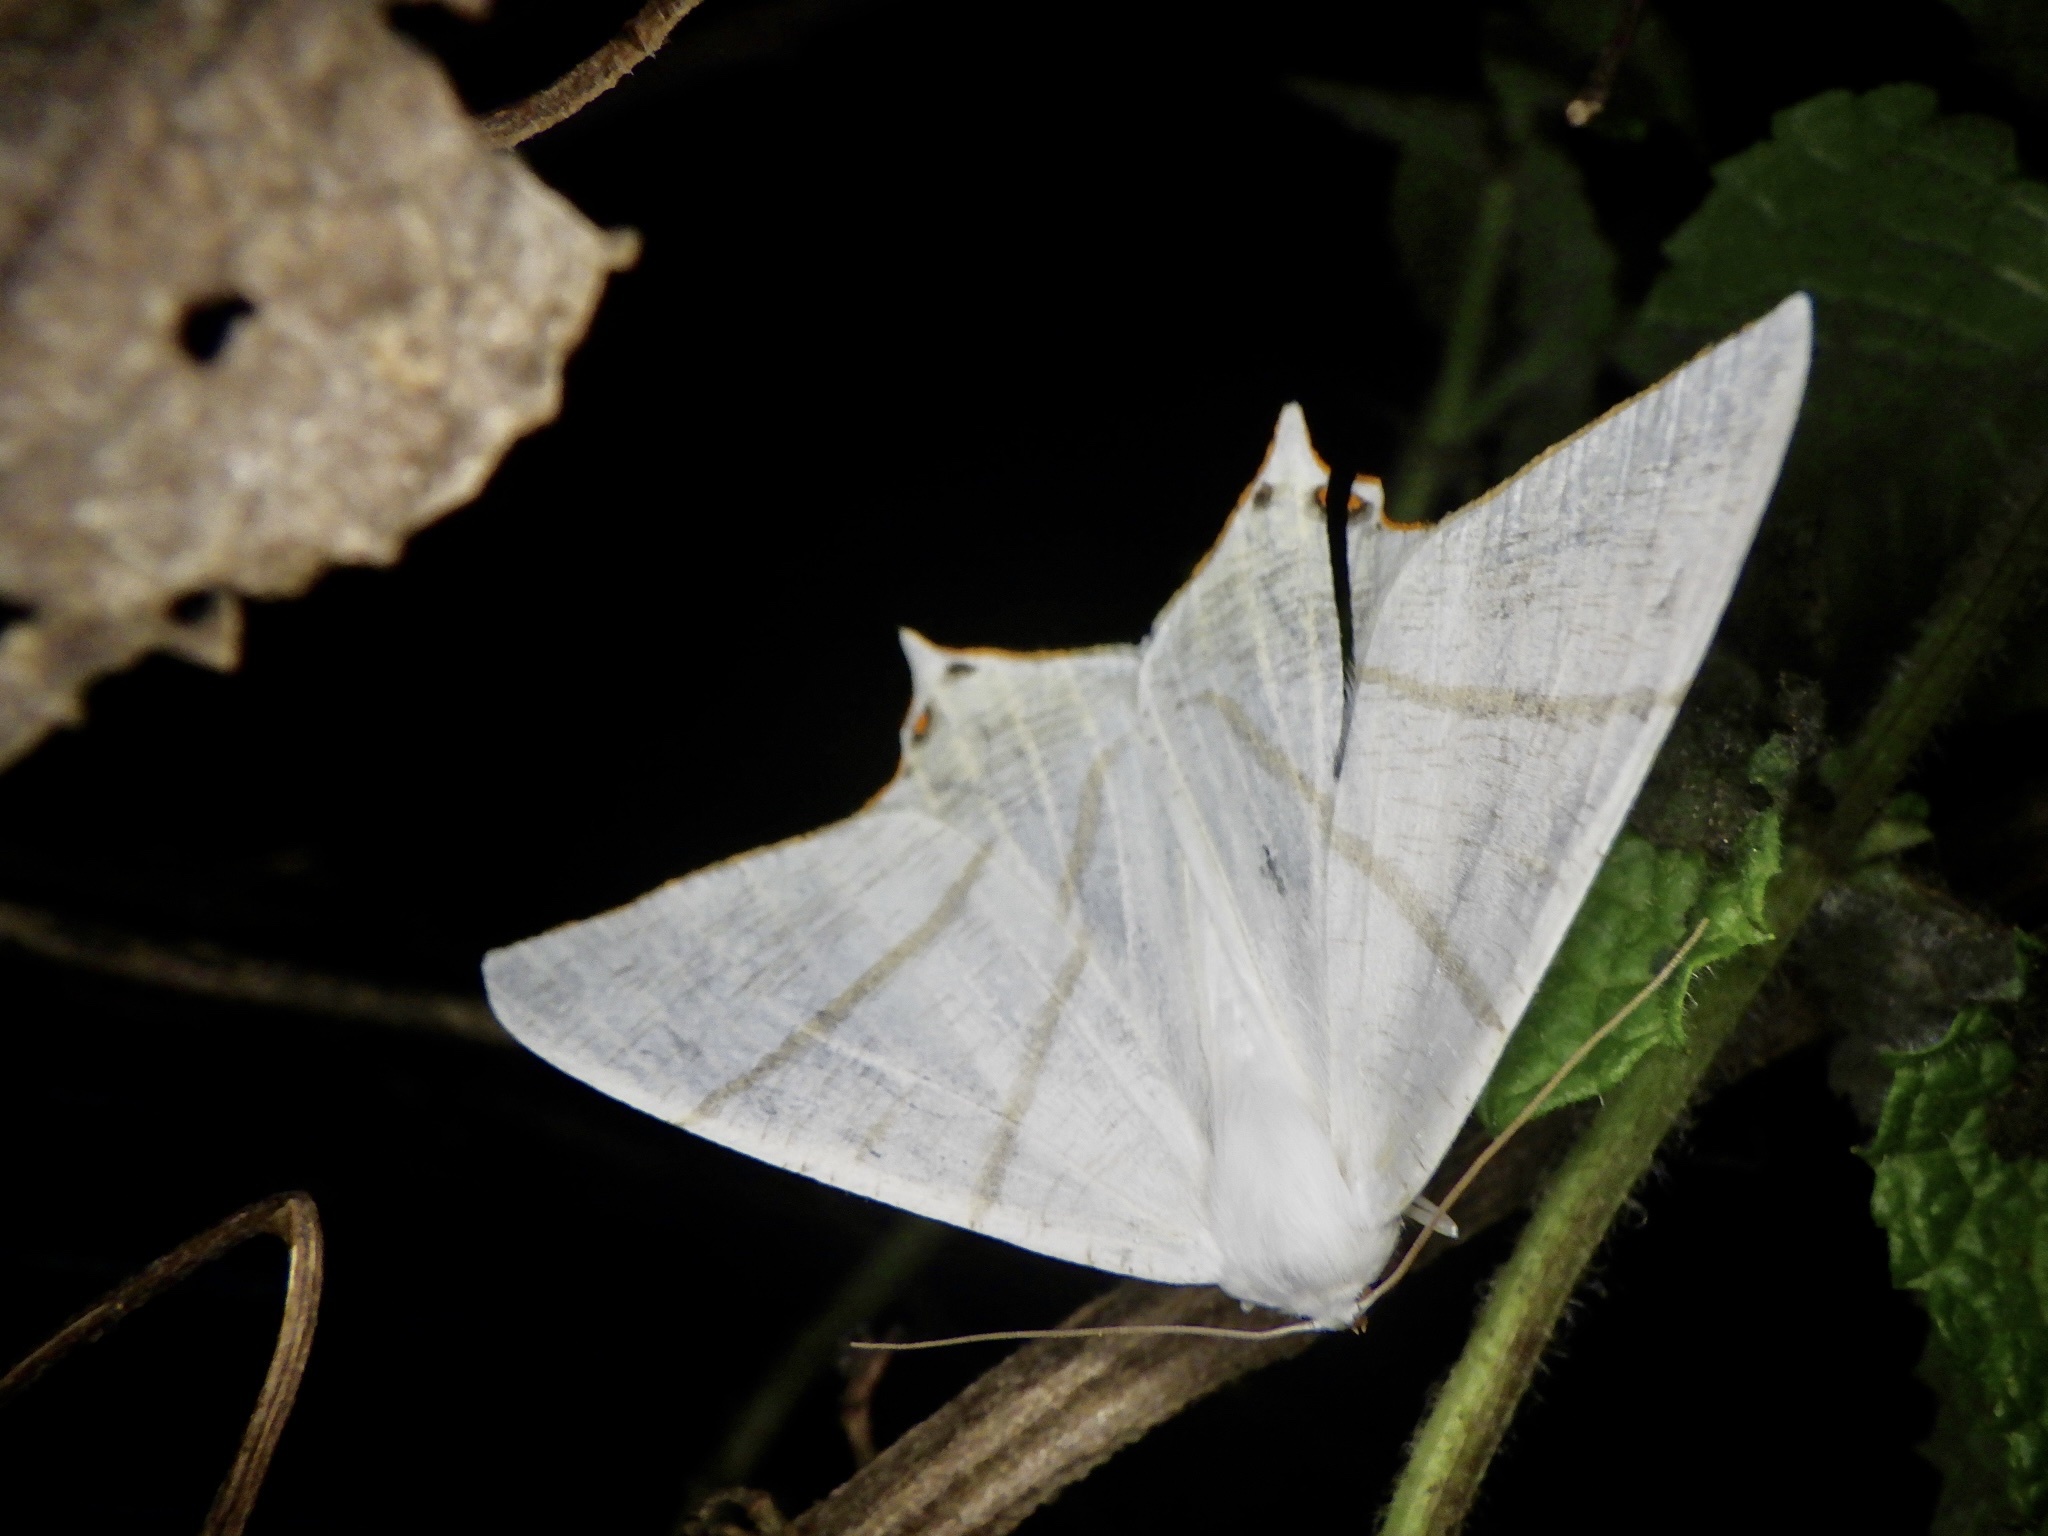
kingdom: Animalia
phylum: Arthropoda
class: Insecta
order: Lepidoptera
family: Geometridae
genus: Ourapteryx
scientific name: Ourapteryx nivea
